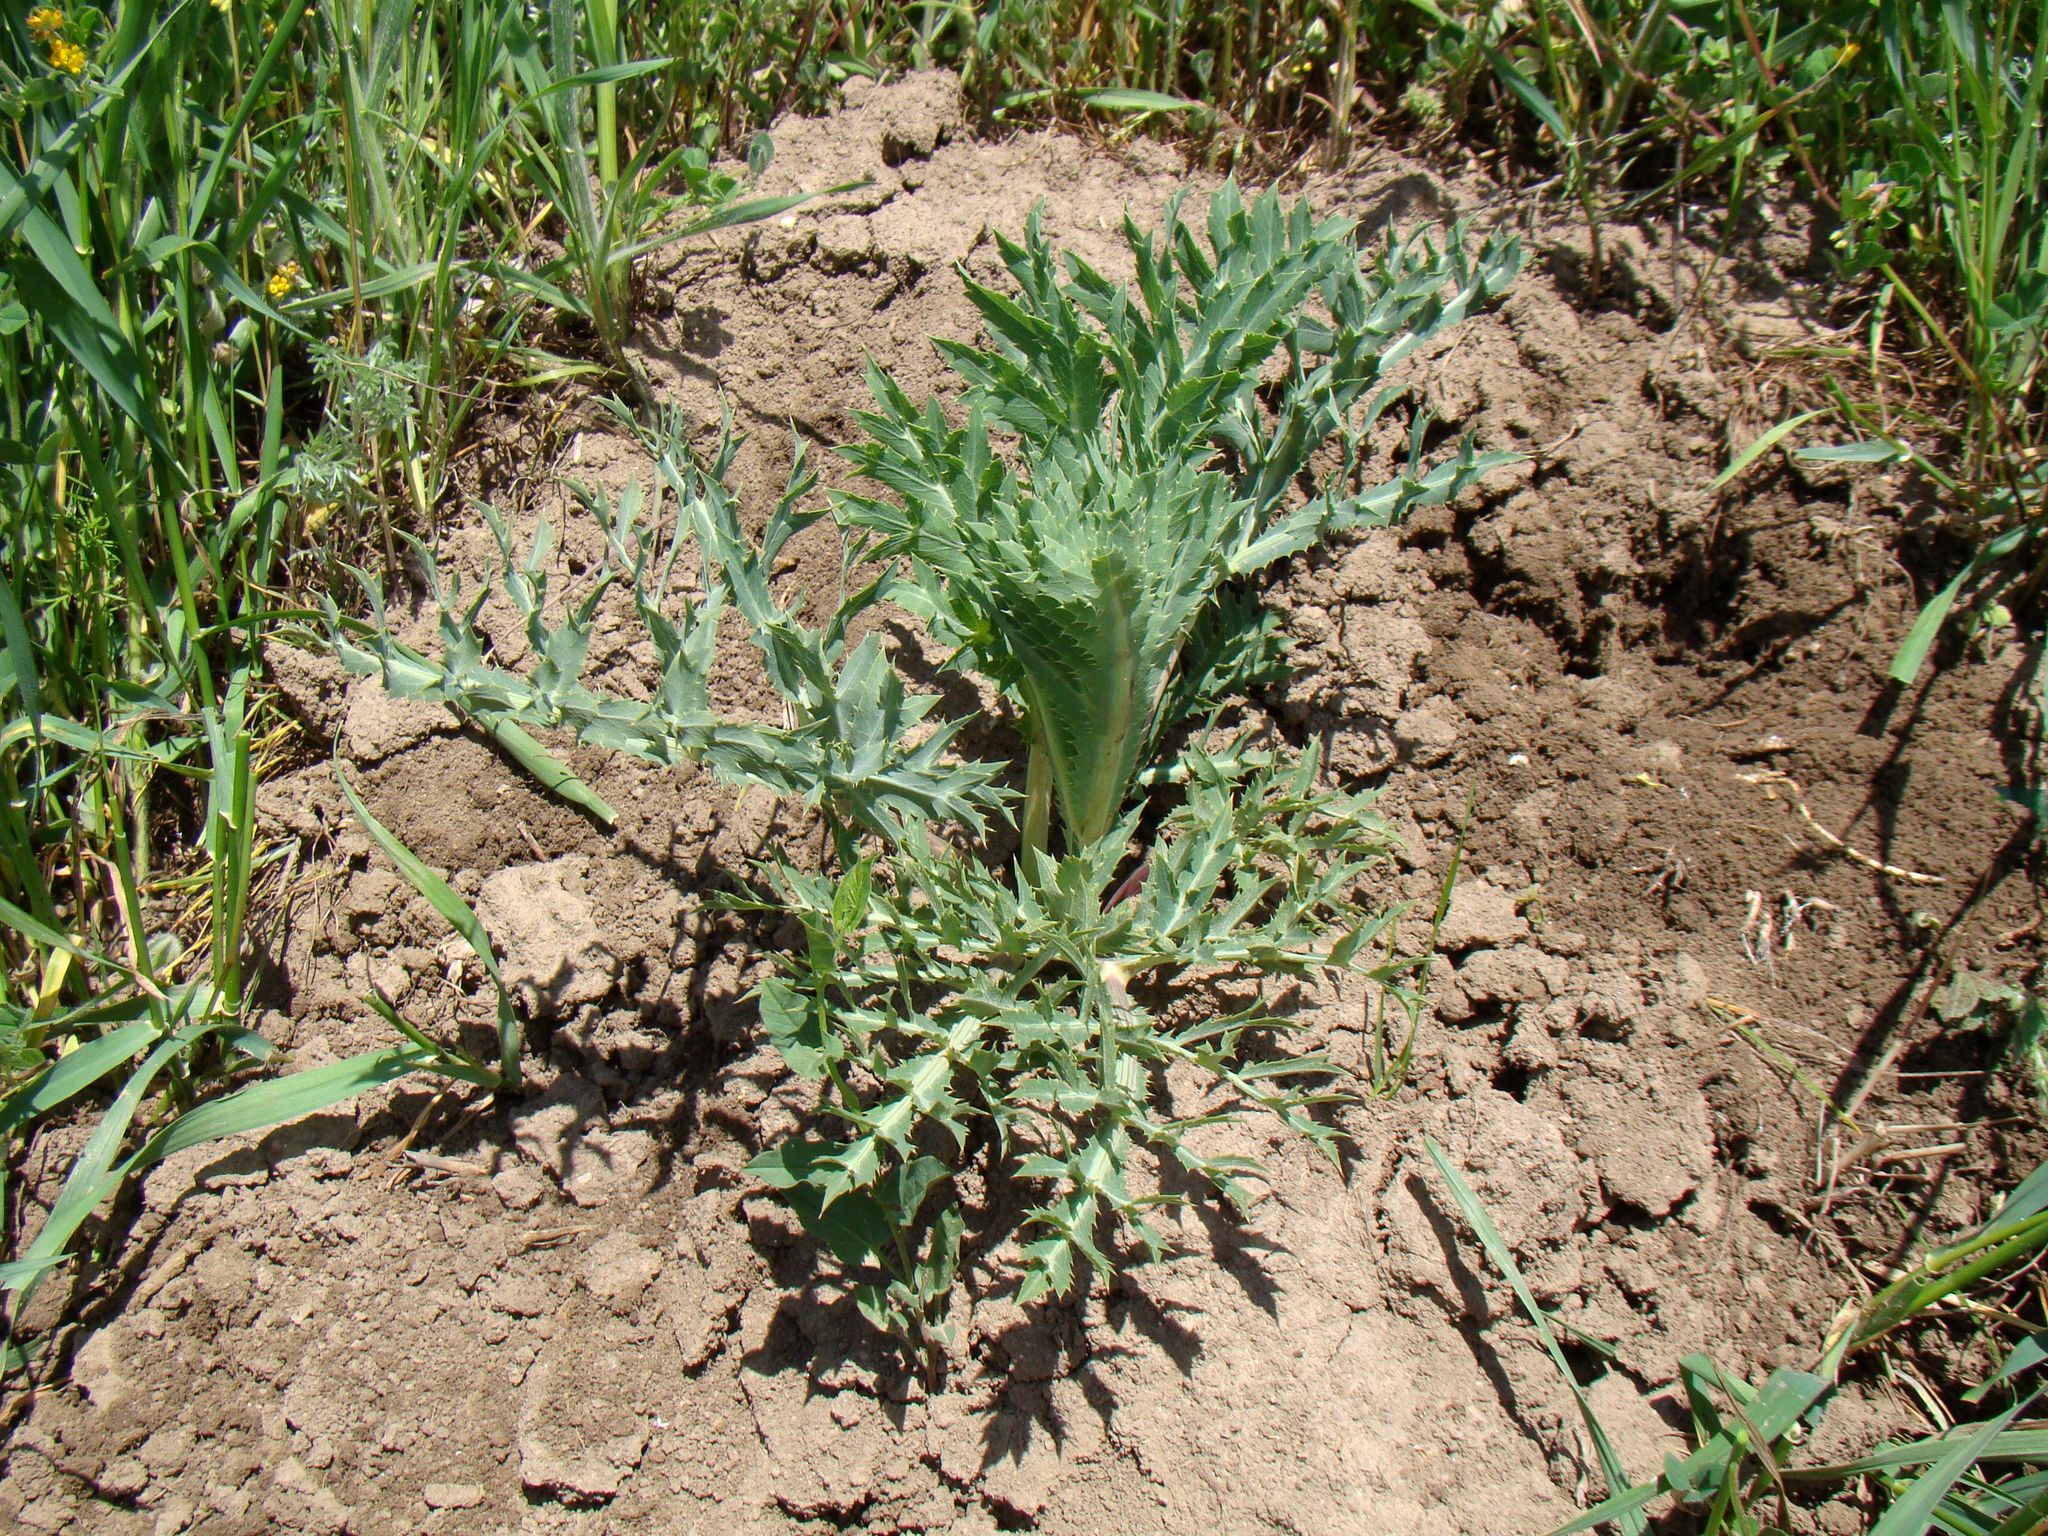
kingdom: Plantae
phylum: Tracheophyta
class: Magnoliopsida
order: Apiales
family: Apiaceae
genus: Eryngium
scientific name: Eryngium campestre
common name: Field eryngo
